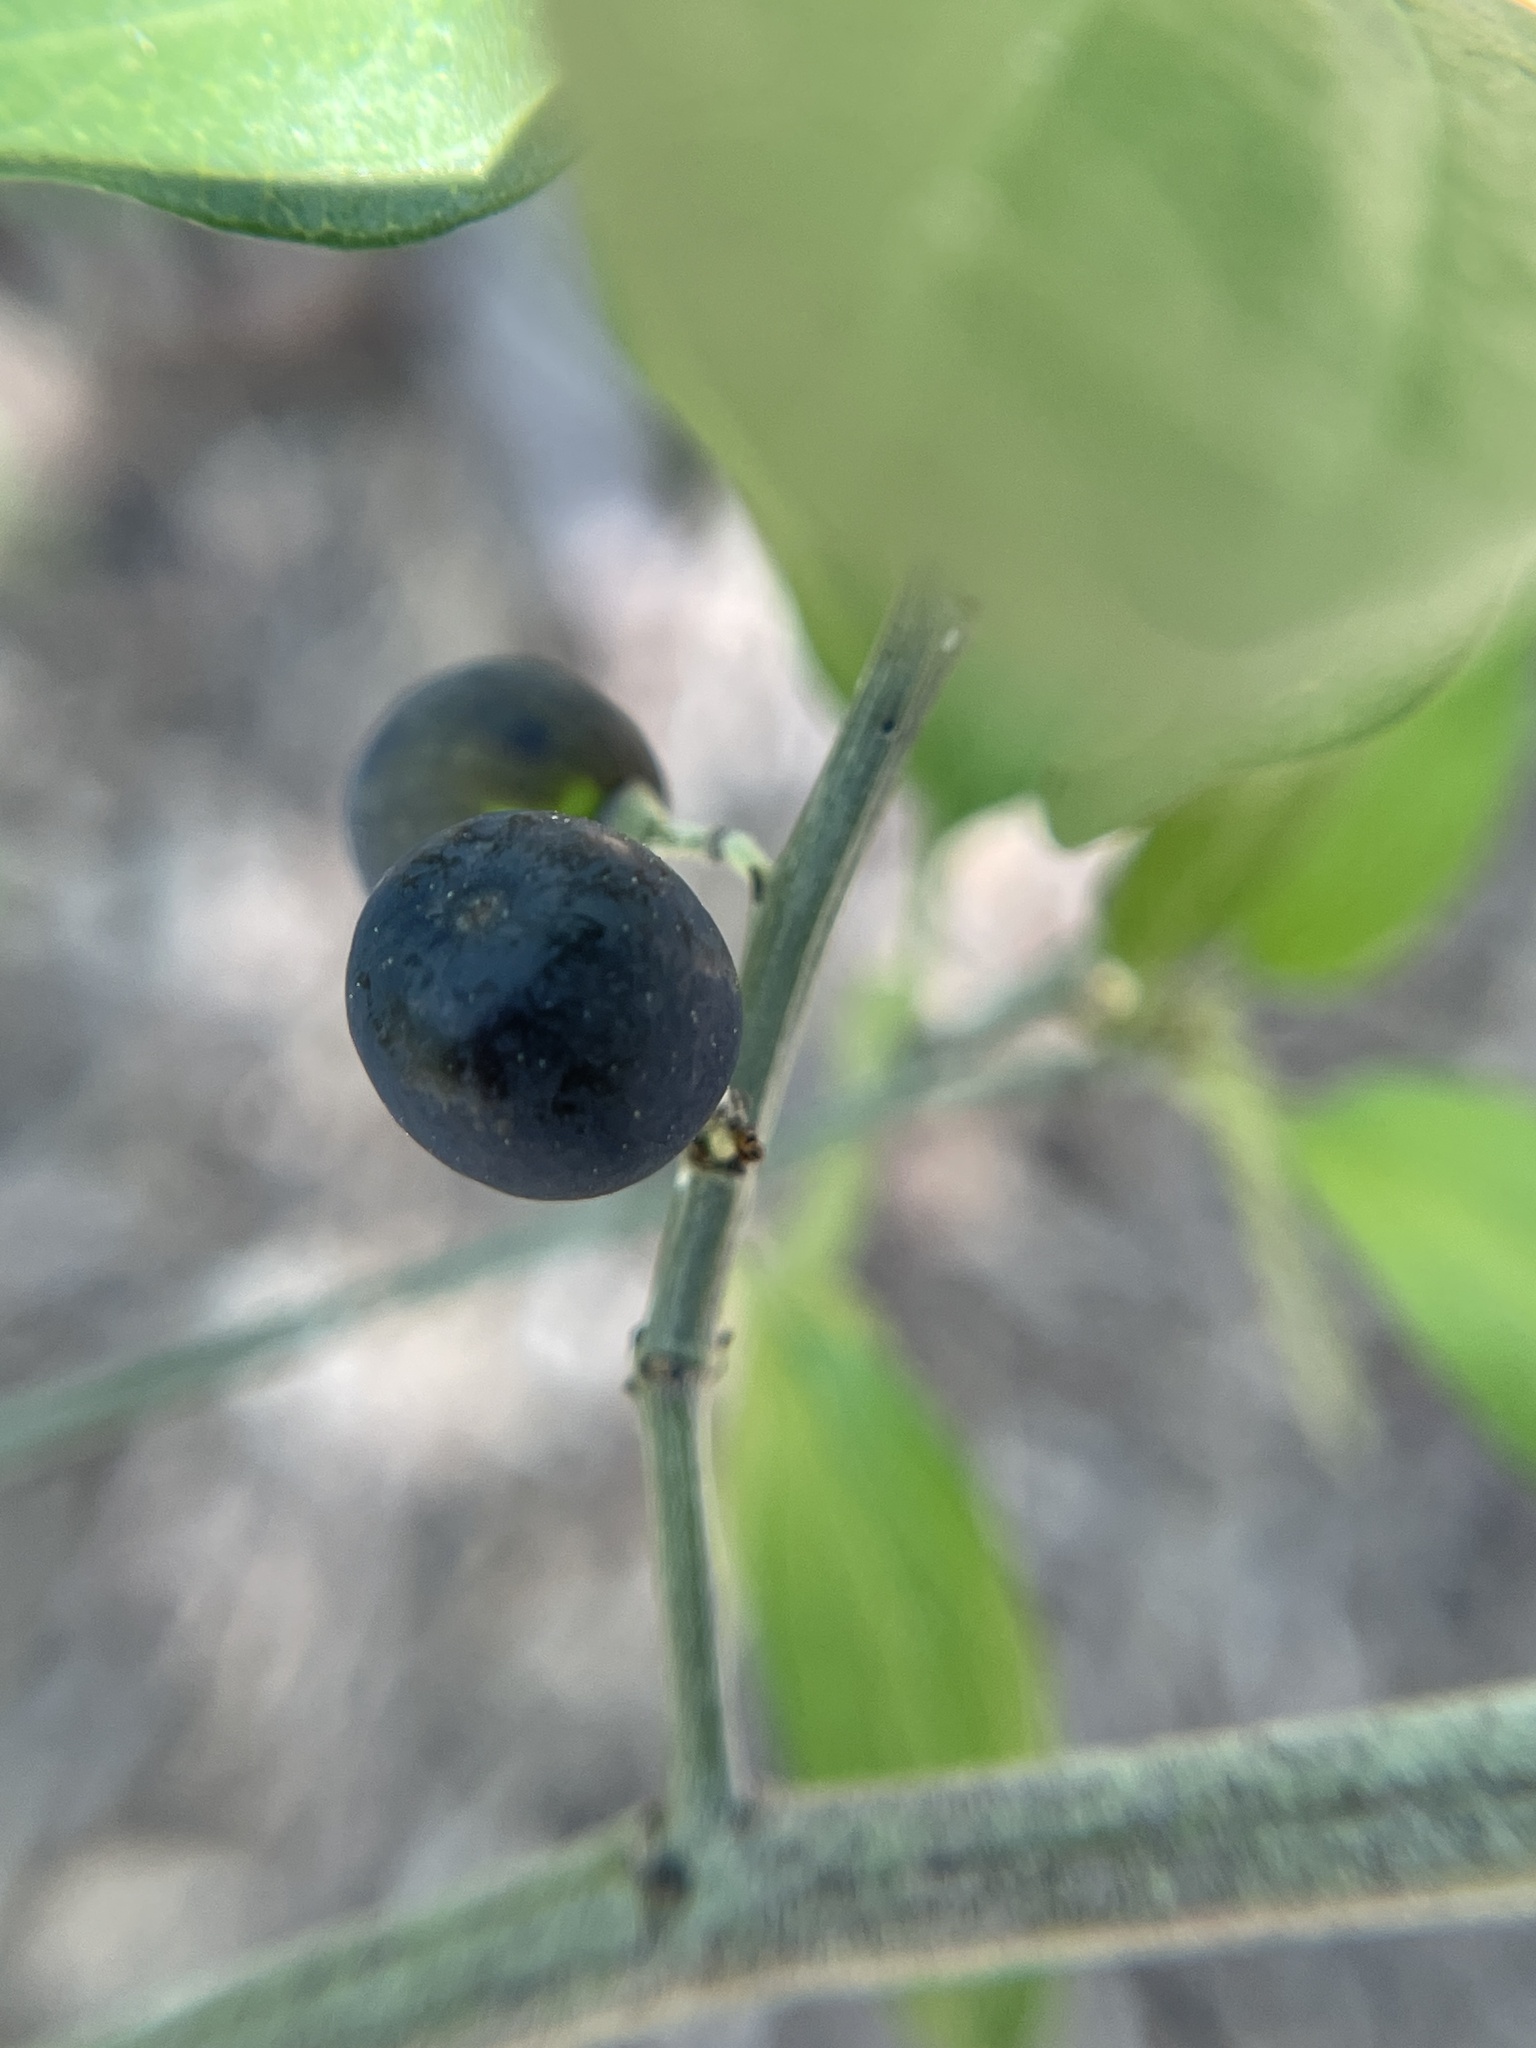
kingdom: Plantae
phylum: Tracheophyta
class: Magnoliopsida
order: Rosales
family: Rhamnaceae
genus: Sarcomphalus
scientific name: Sarcomphalus obtusifolius
